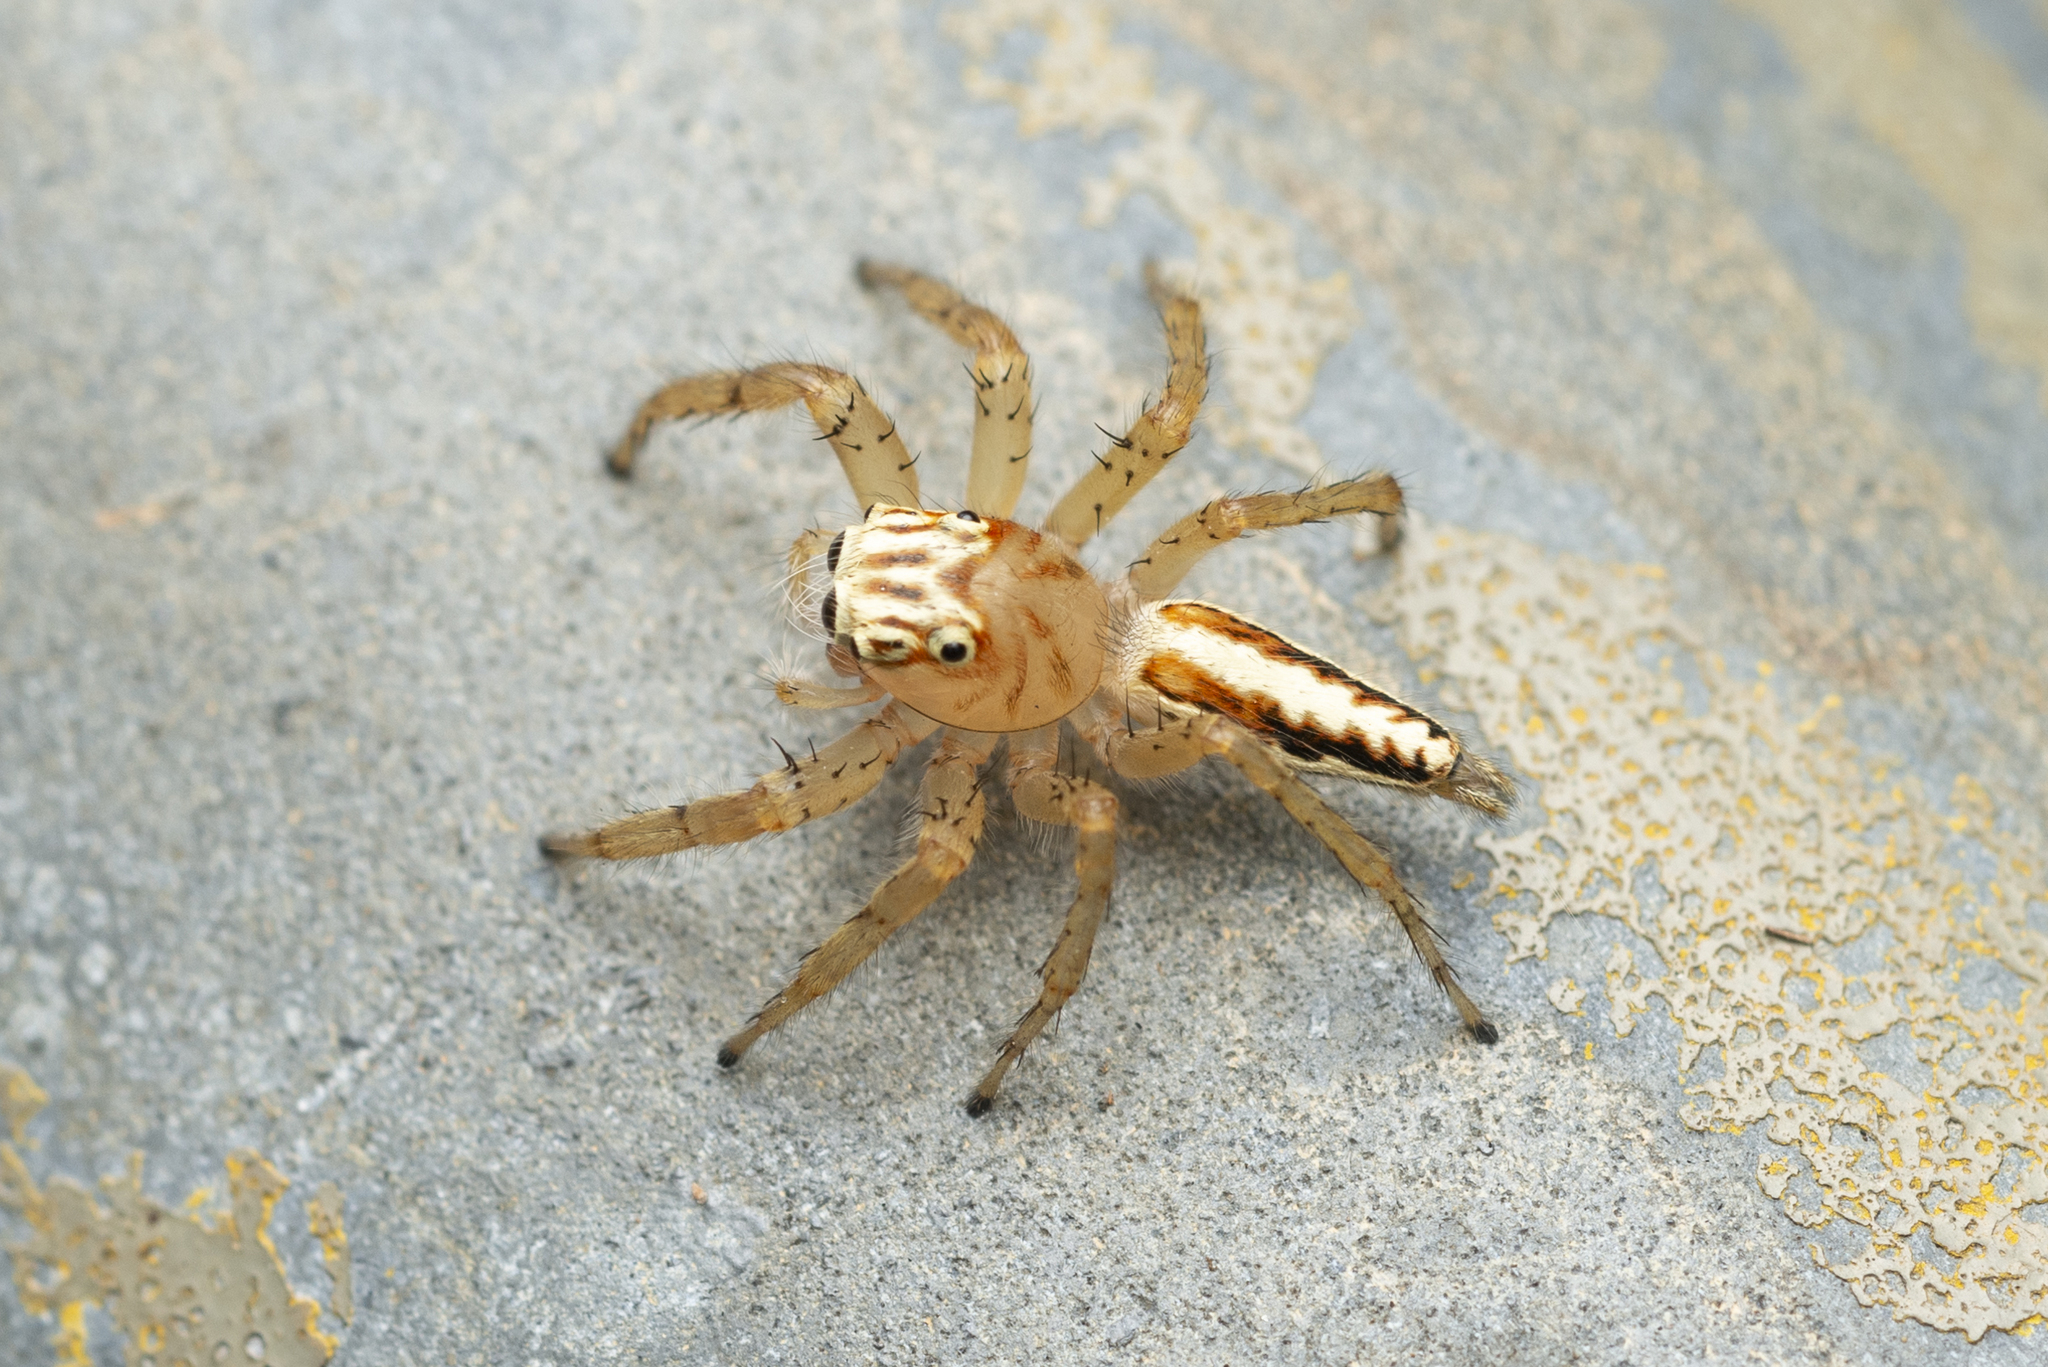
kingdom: Animalia
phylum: Arthropoda
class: Arachnida
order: Araneae
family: Salticidae
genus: Telamonia
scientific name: Telamonia caprina
